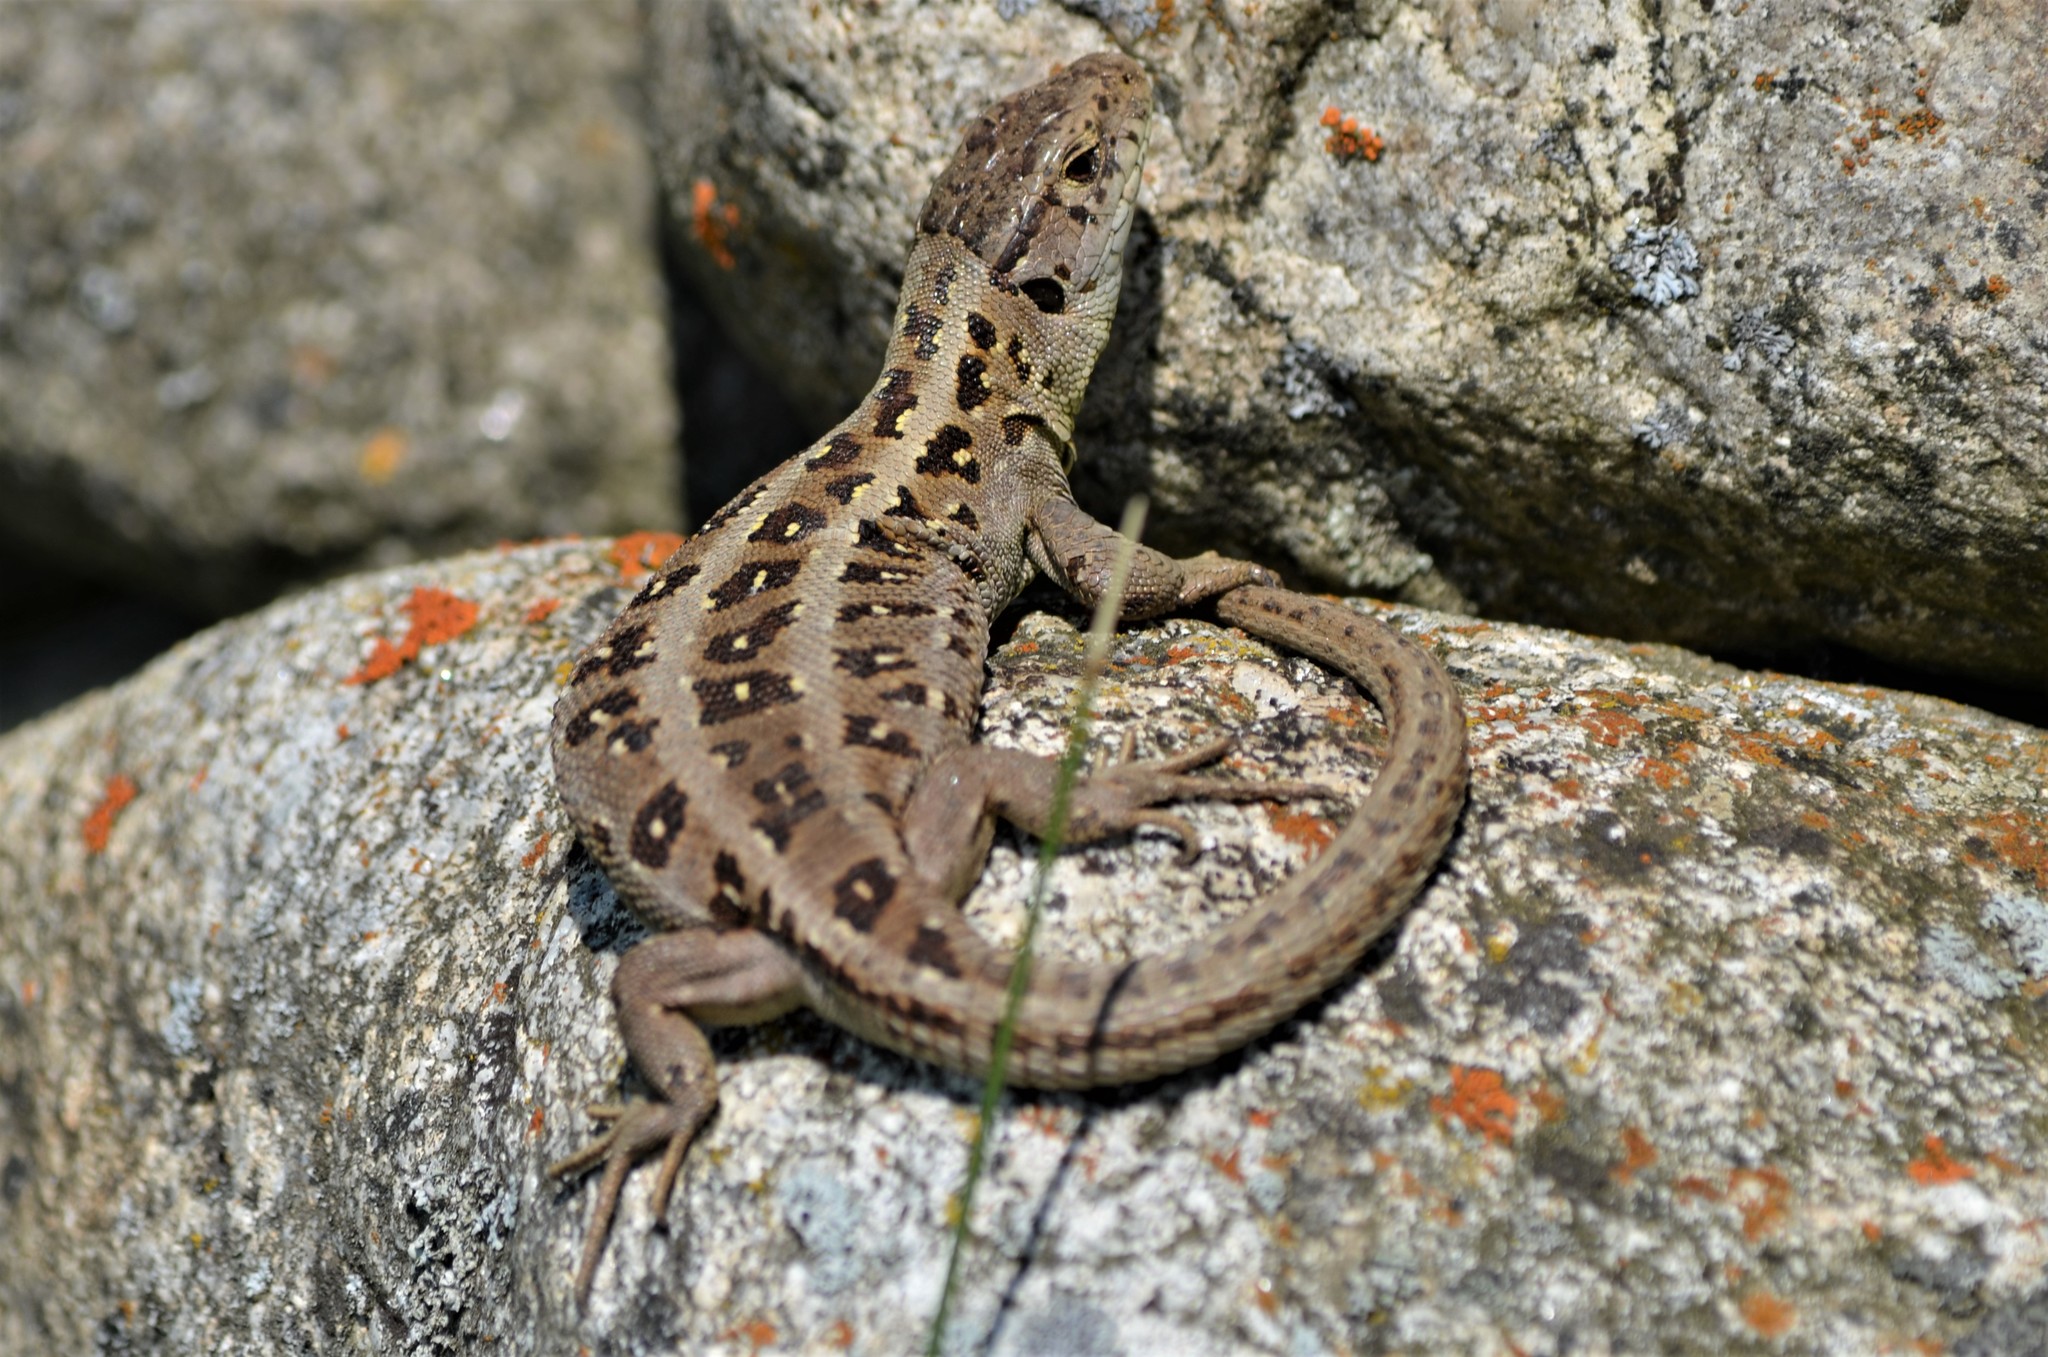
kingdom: Animalia
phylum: Chordata
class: Squamata
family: Lacertidae
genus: Lacerta
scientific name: Lacerta agilis
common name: Sand lizard
